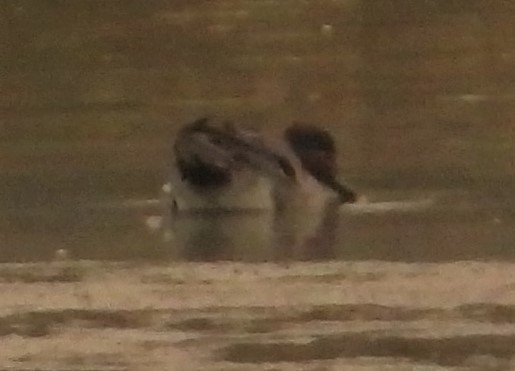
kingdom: Animalia
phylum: Chordata
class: Aves
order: Anseriformes
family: Anatidae
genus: Anas
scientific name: Anas crecca
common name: Eurasian teal
